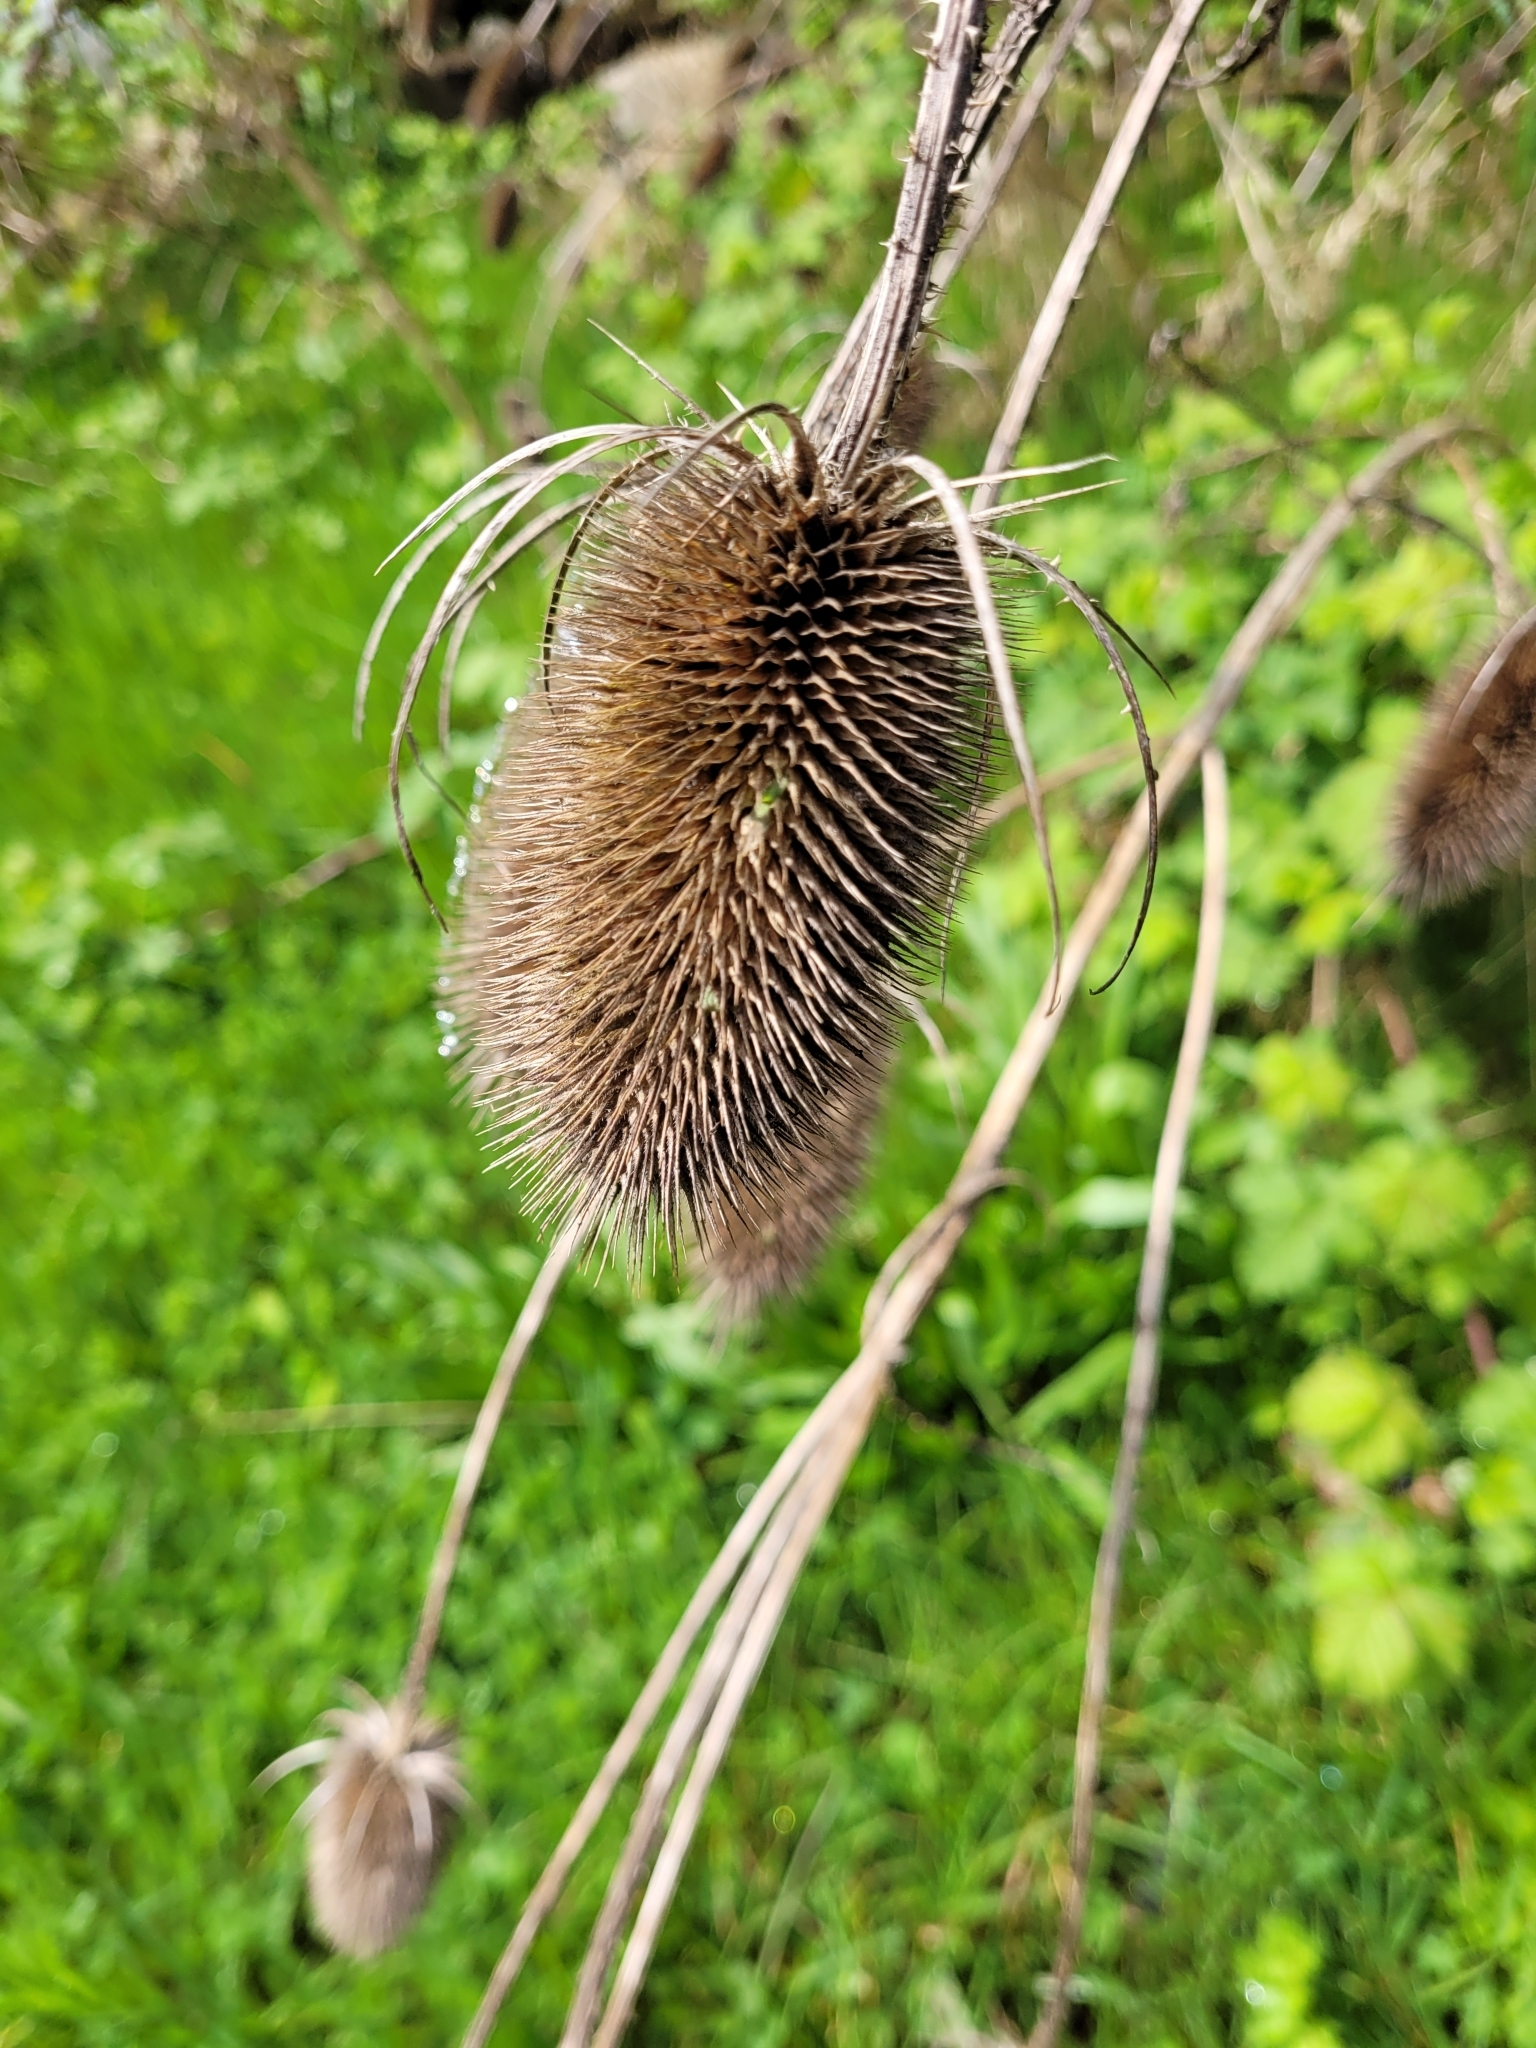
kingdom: Plantae
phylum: Tracheophyta
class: Magnoliopsida
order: Dipsacales
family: Caprifoliaceae
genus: Dipsacus
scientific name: Dipsacus fullonum
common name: Teasel
